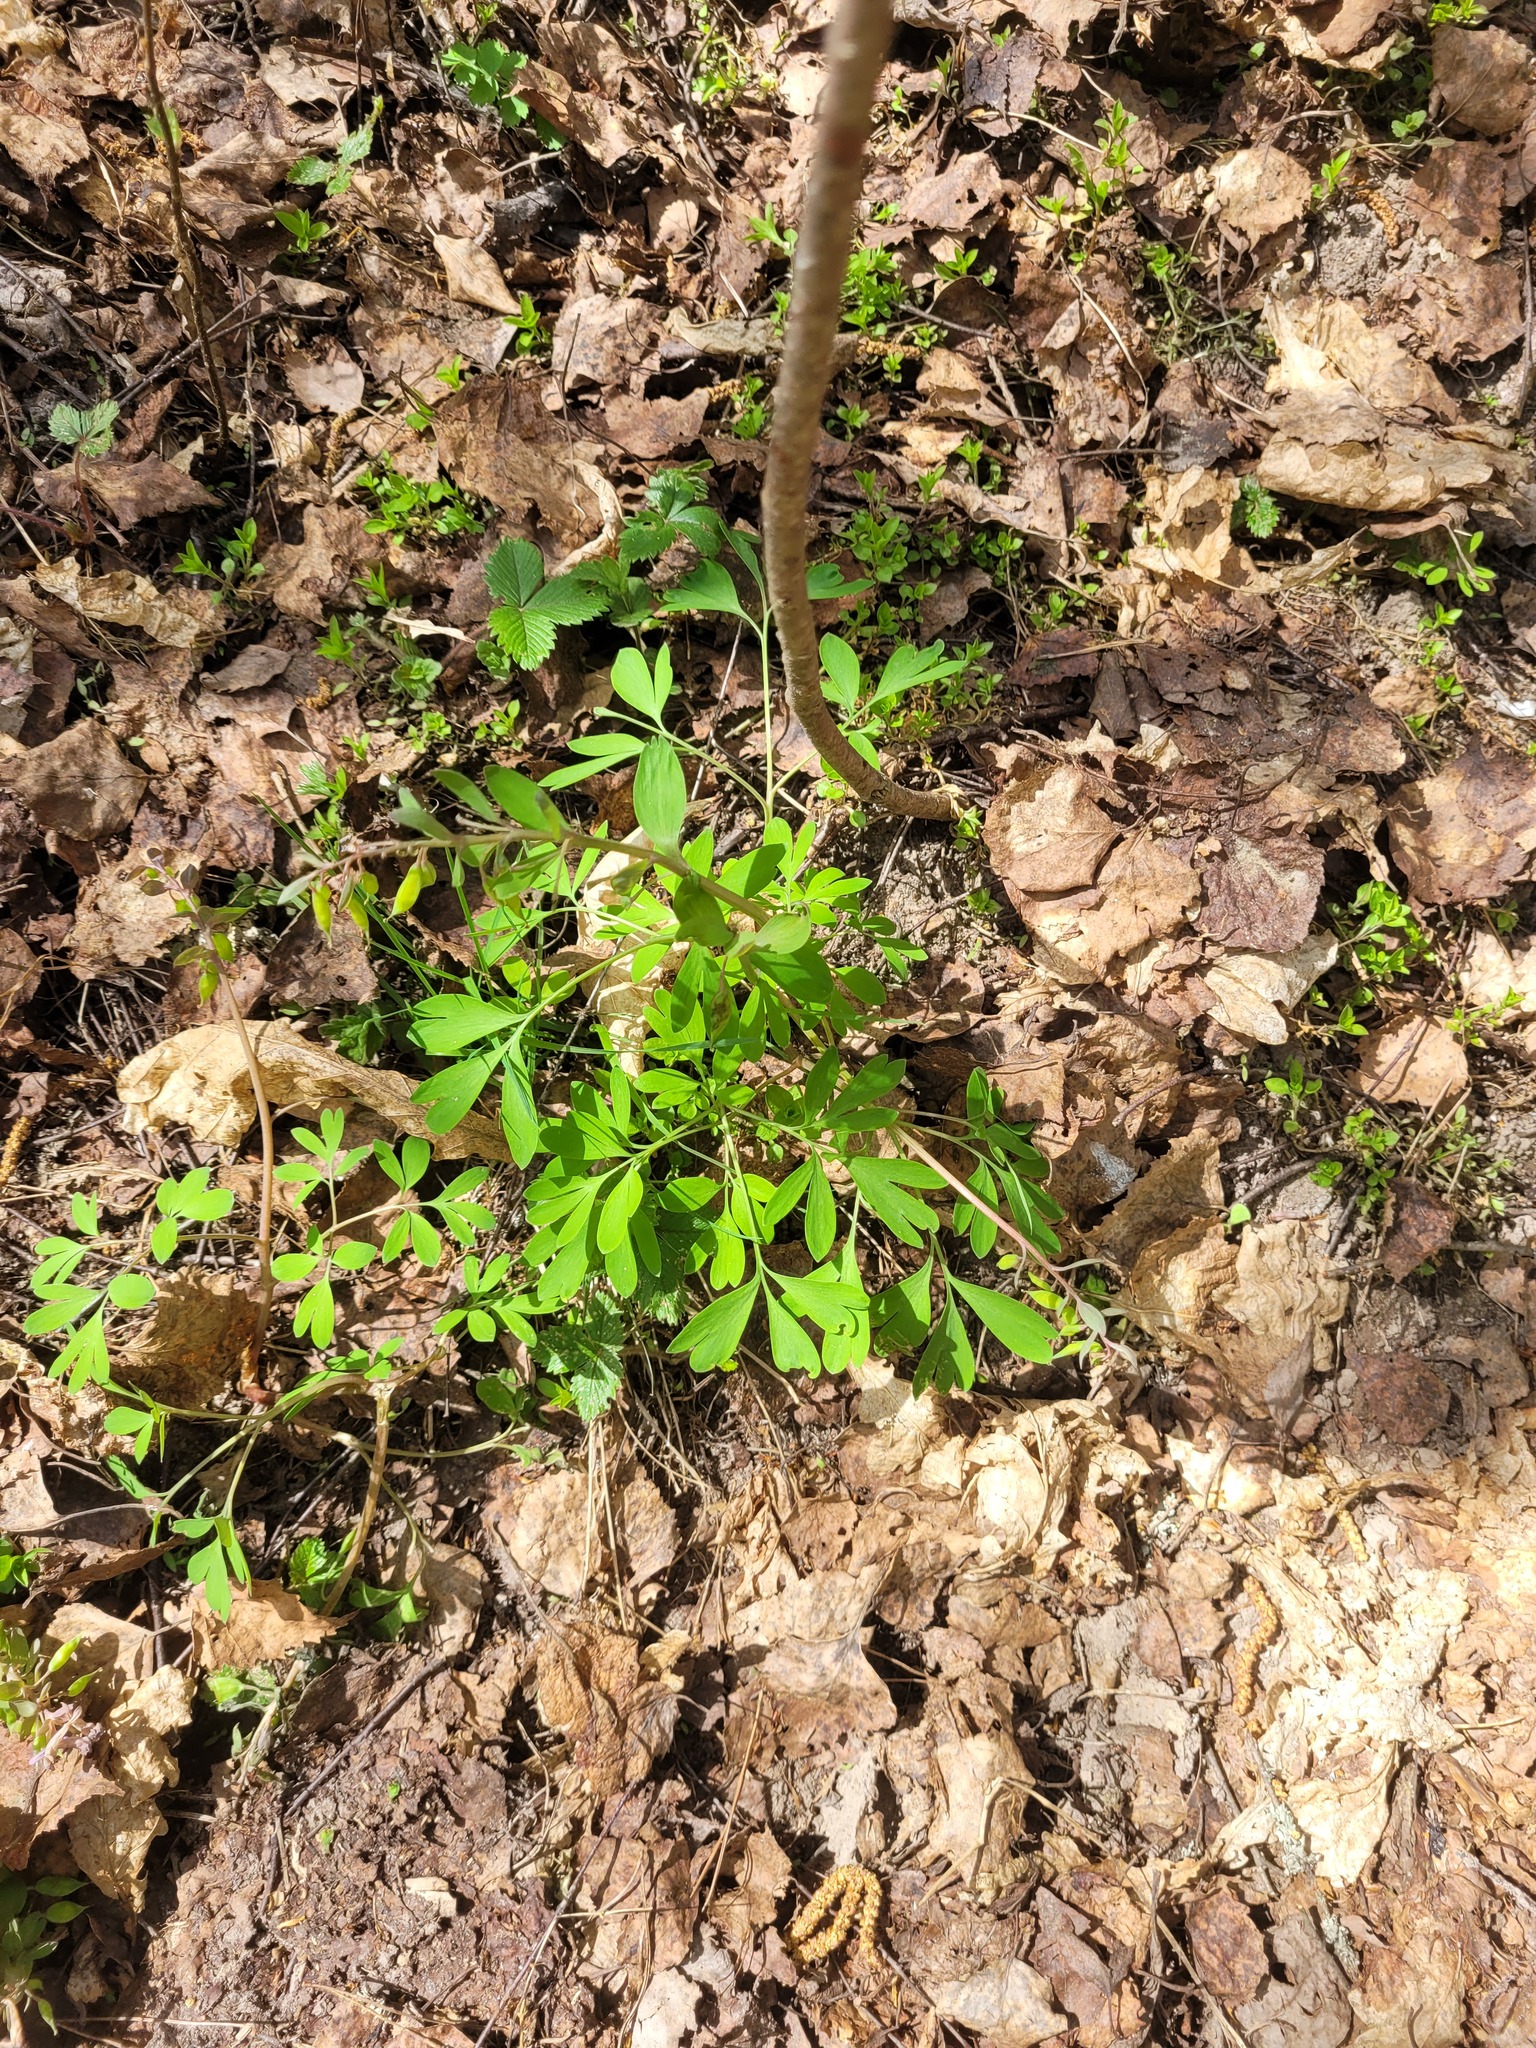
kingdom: Plantae
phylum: Tracheophyta
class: Magnoliopsida
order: Ranunculales
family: Papaveraceae
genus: Corydalis
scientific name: Corydalis solida
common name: Bird-in-a-bush
